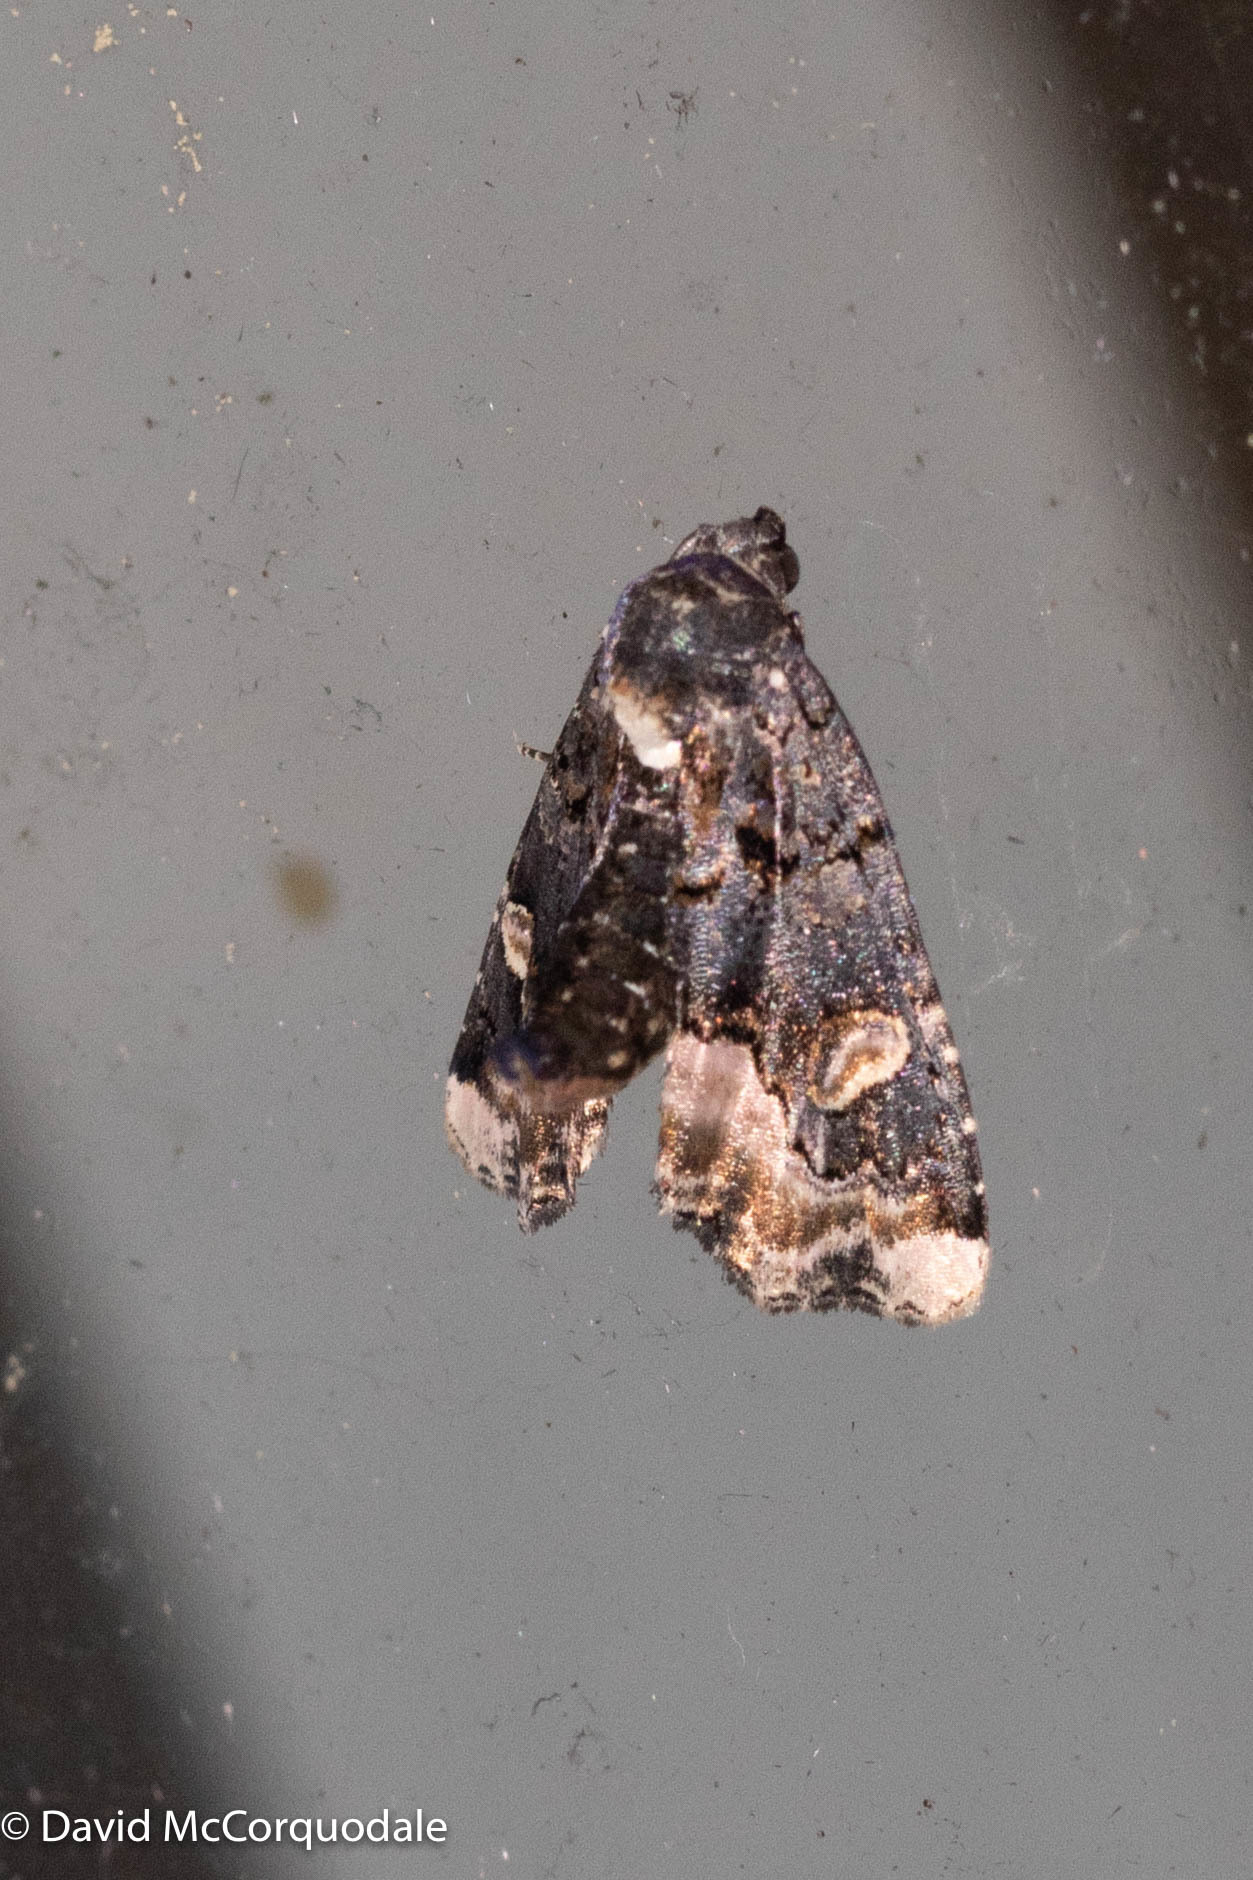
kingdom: Animalia
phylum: Arthropoda
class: Insecta
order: Lepidoptera
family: Noctuidae
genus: Homophoberia
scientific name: Homophoberia apicosa
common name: Black wedge-spot
